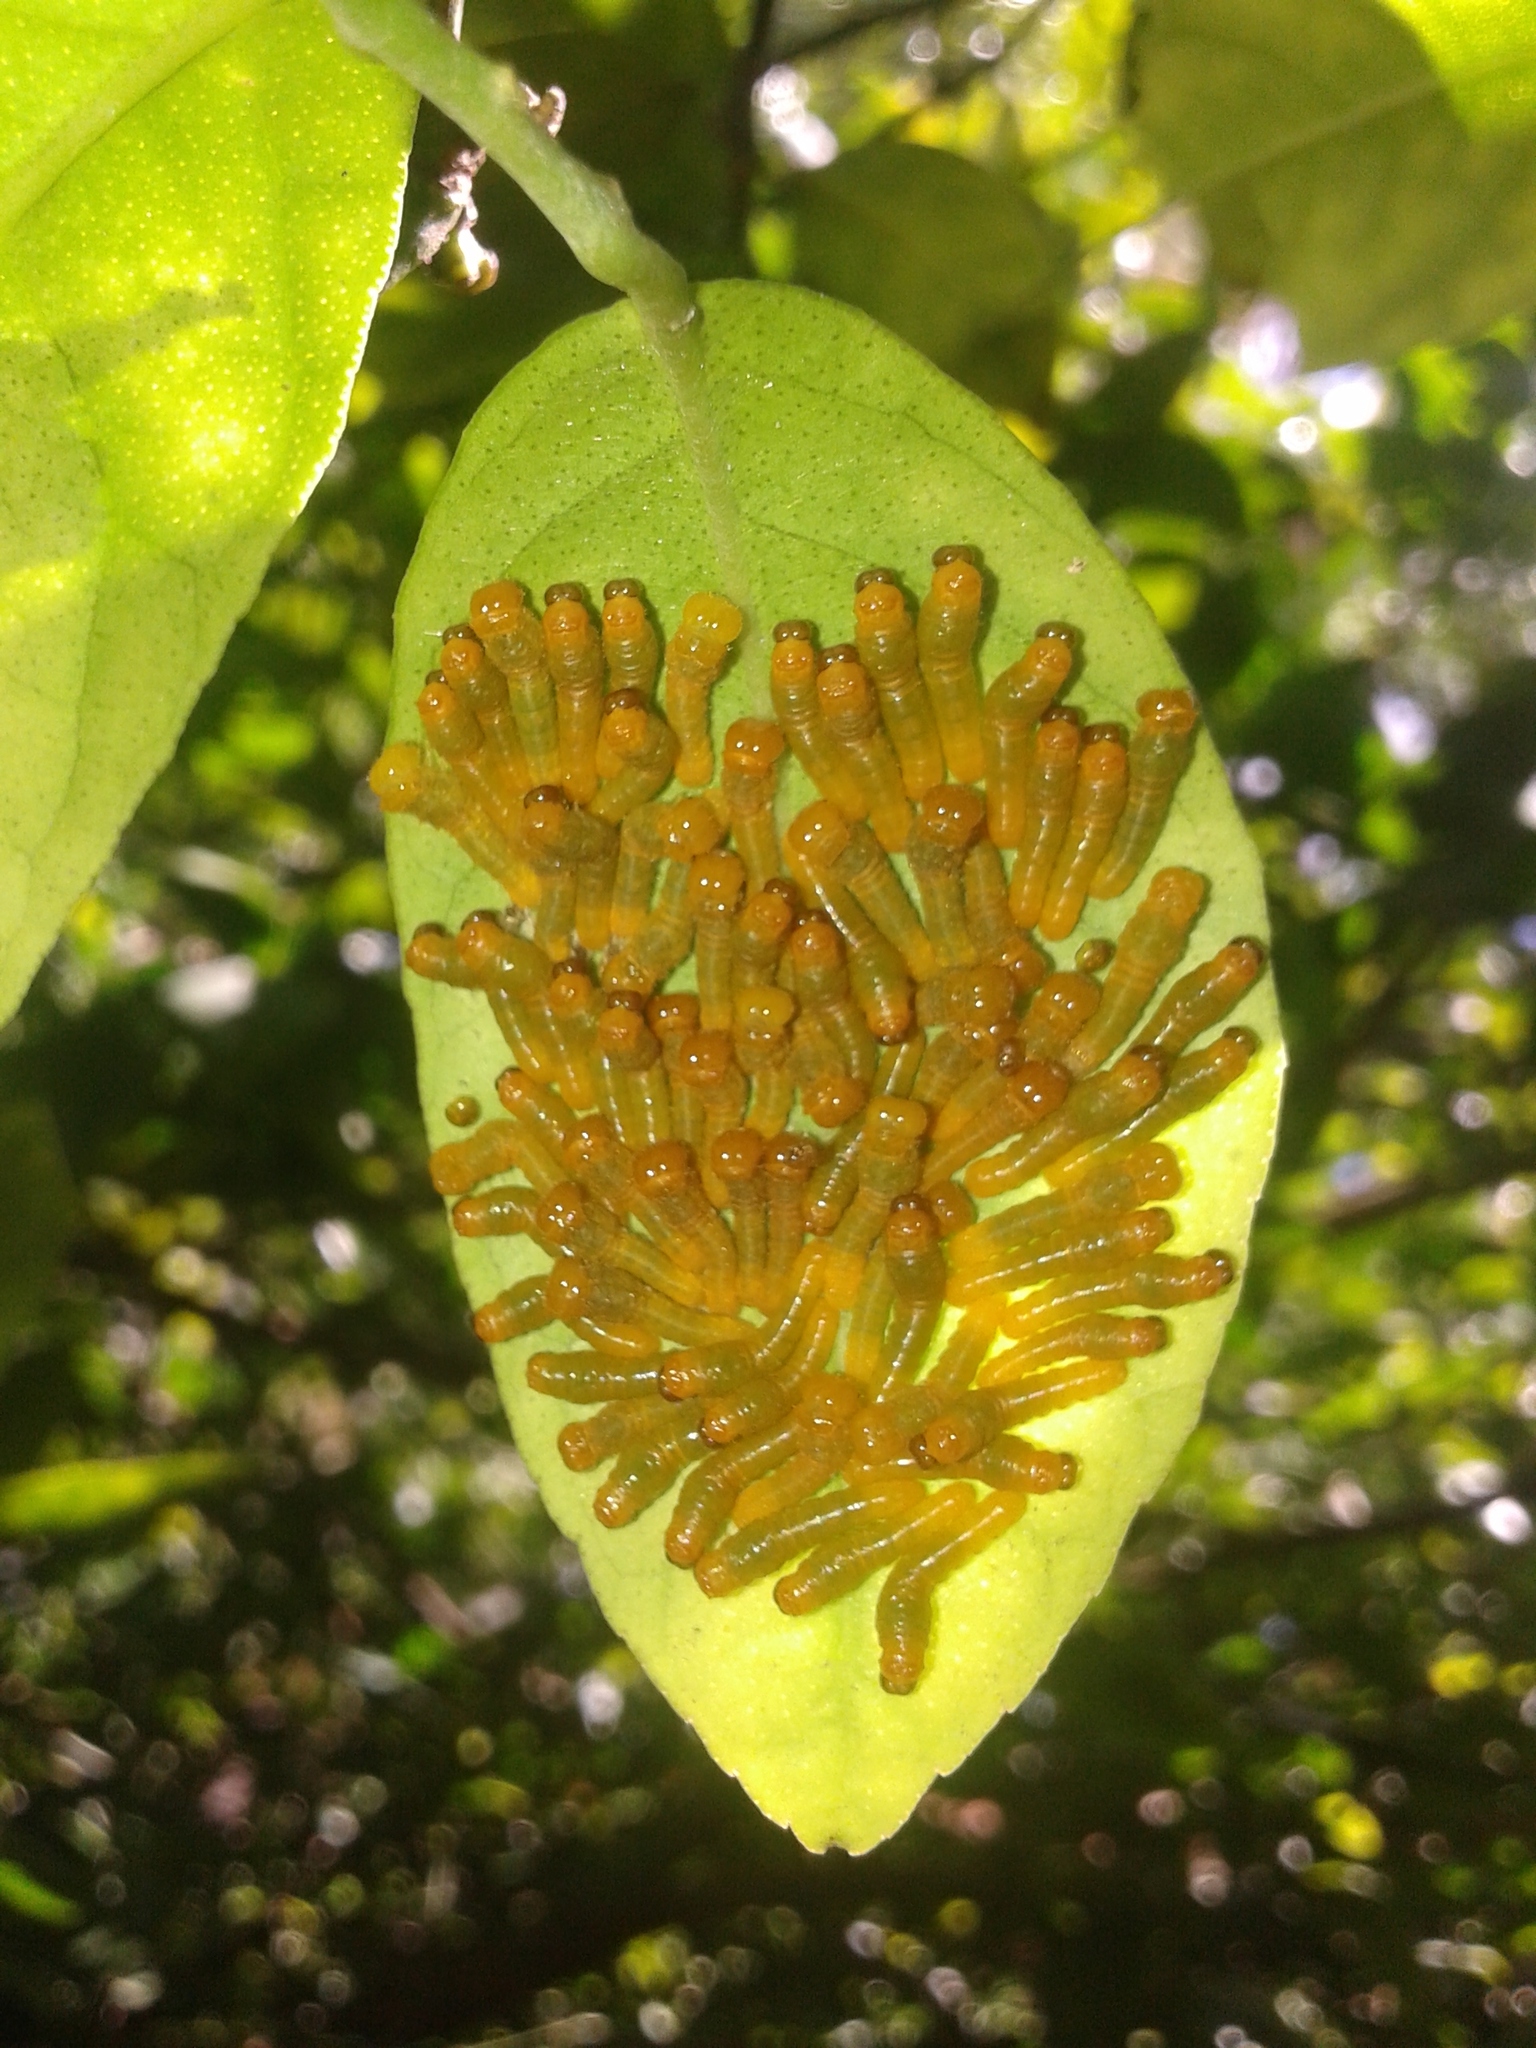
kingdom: Animalia
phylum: Arthropoda
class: Insecta
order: Lepidoptera
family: Papilionidae
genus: Papilio
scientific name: Papilio anchisiades
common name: Idaes swallowtail
